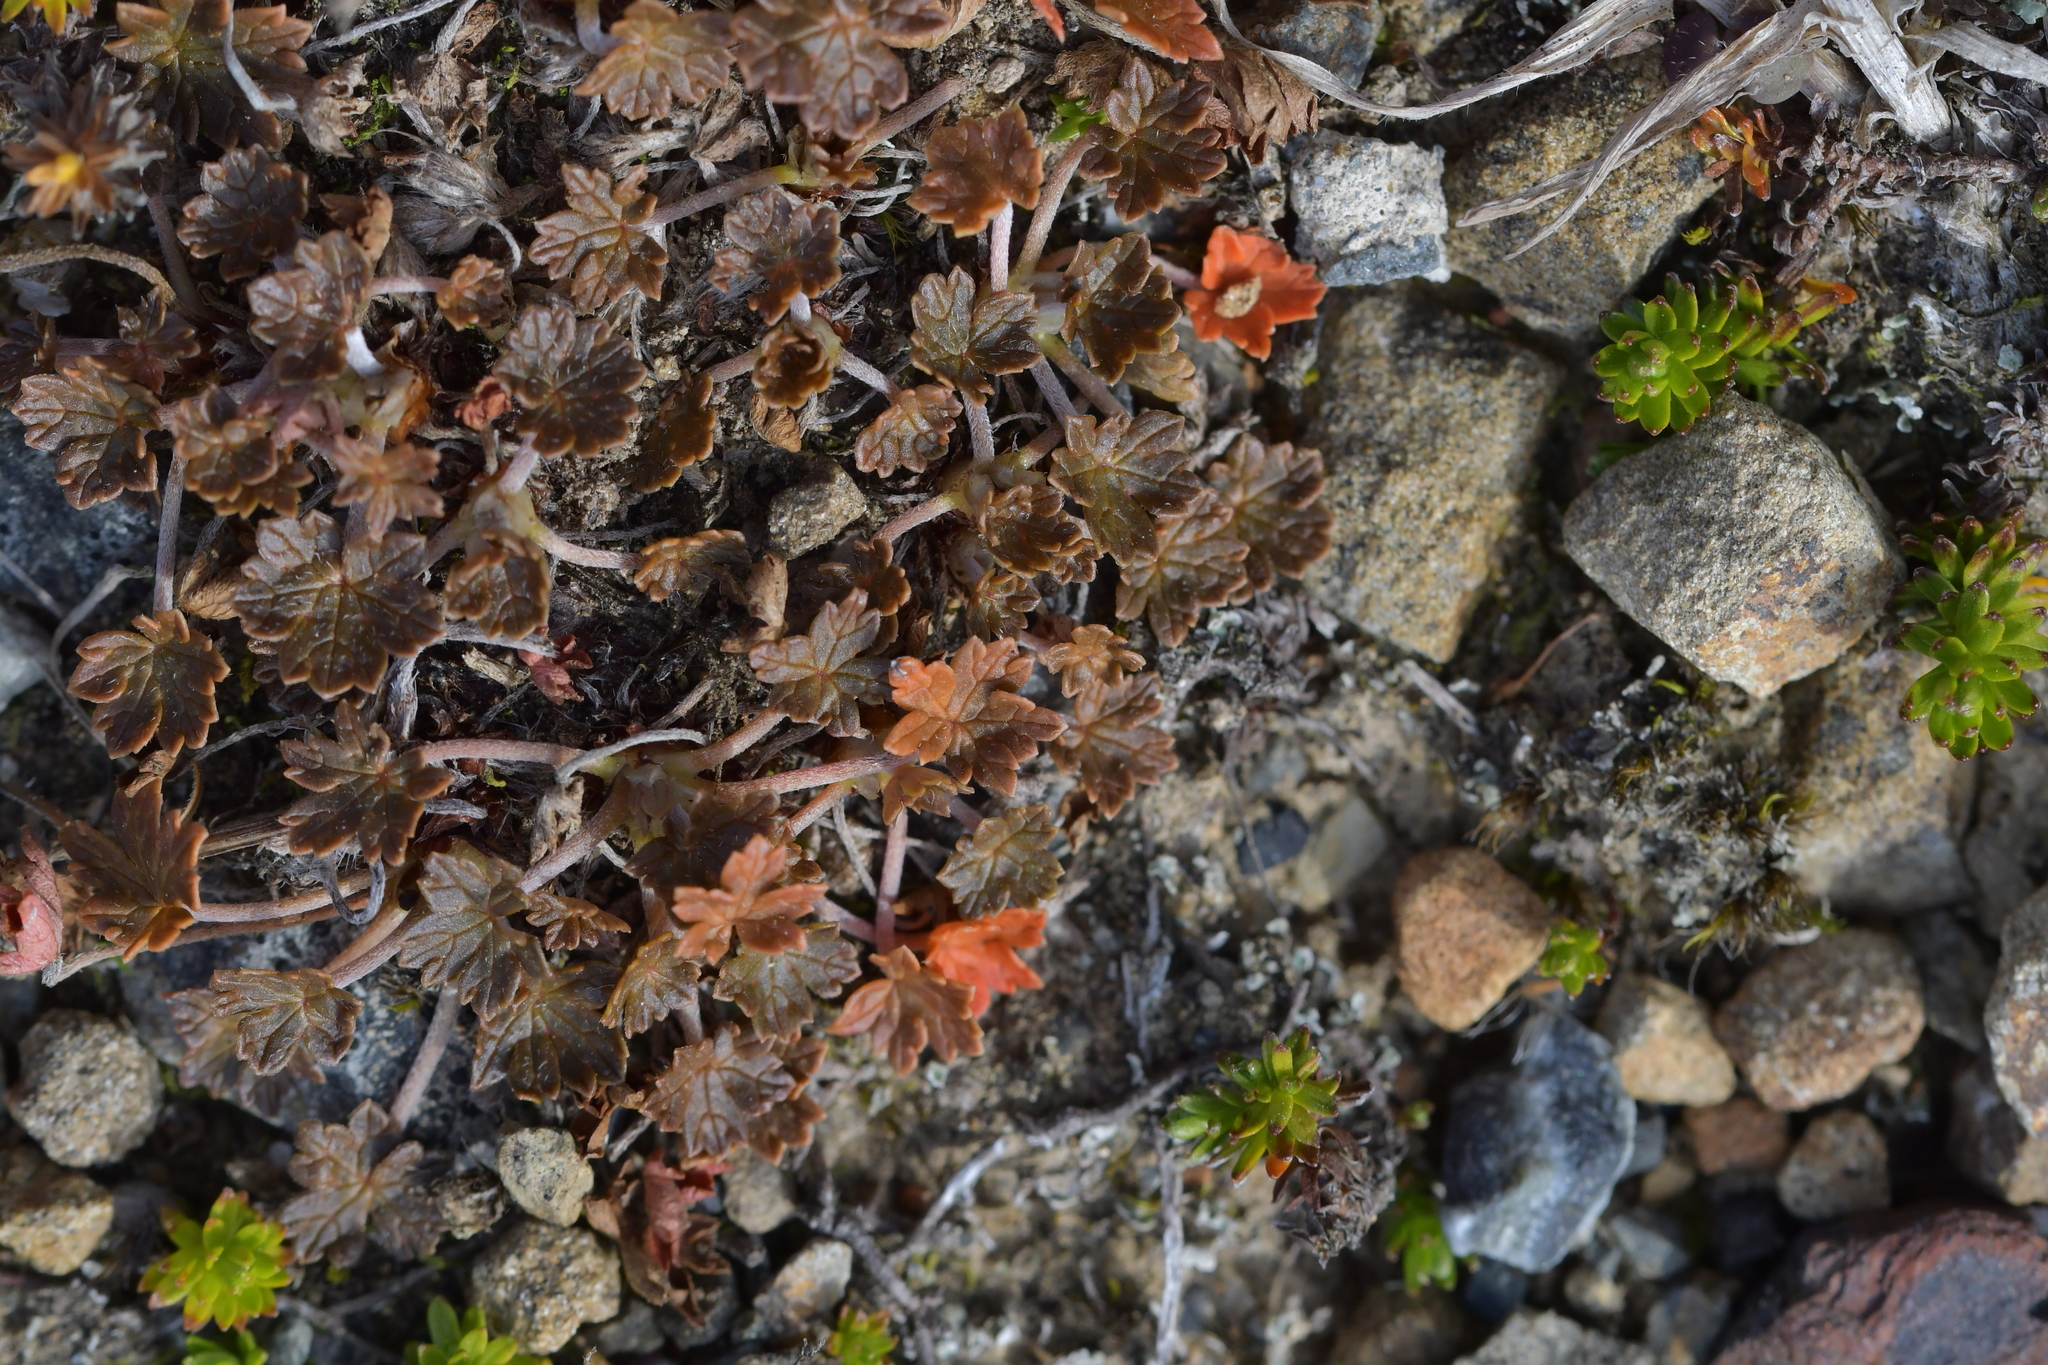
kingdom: Plantae
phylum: Tracheophyta
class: Magnoliopsida
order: Geraniales
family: Geraniaceae
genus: Geranium
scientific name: Geranium brevicaule
